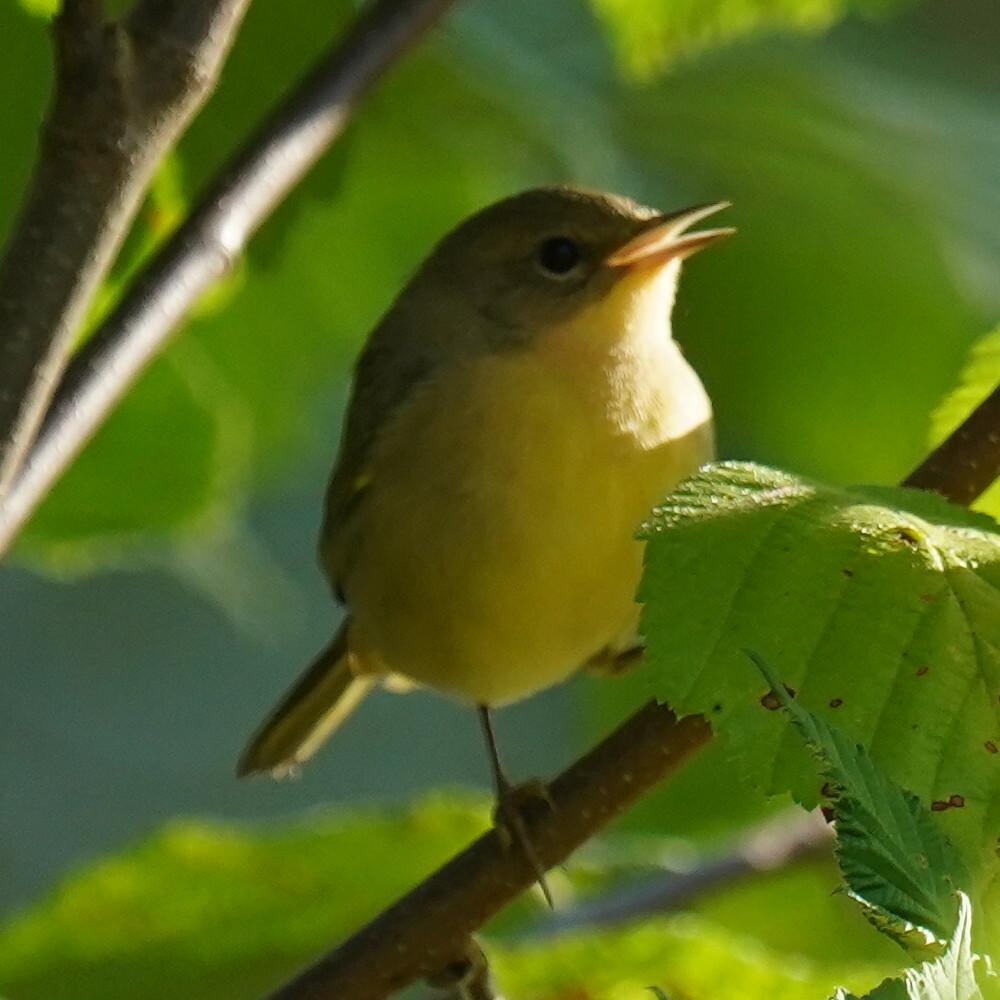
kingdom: Animalia
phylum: Chordata
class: Aves
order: Passeriformes
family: Parulidae
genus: Geothlypis
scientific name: Geothlypis trichas
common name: Common yellowthroat
